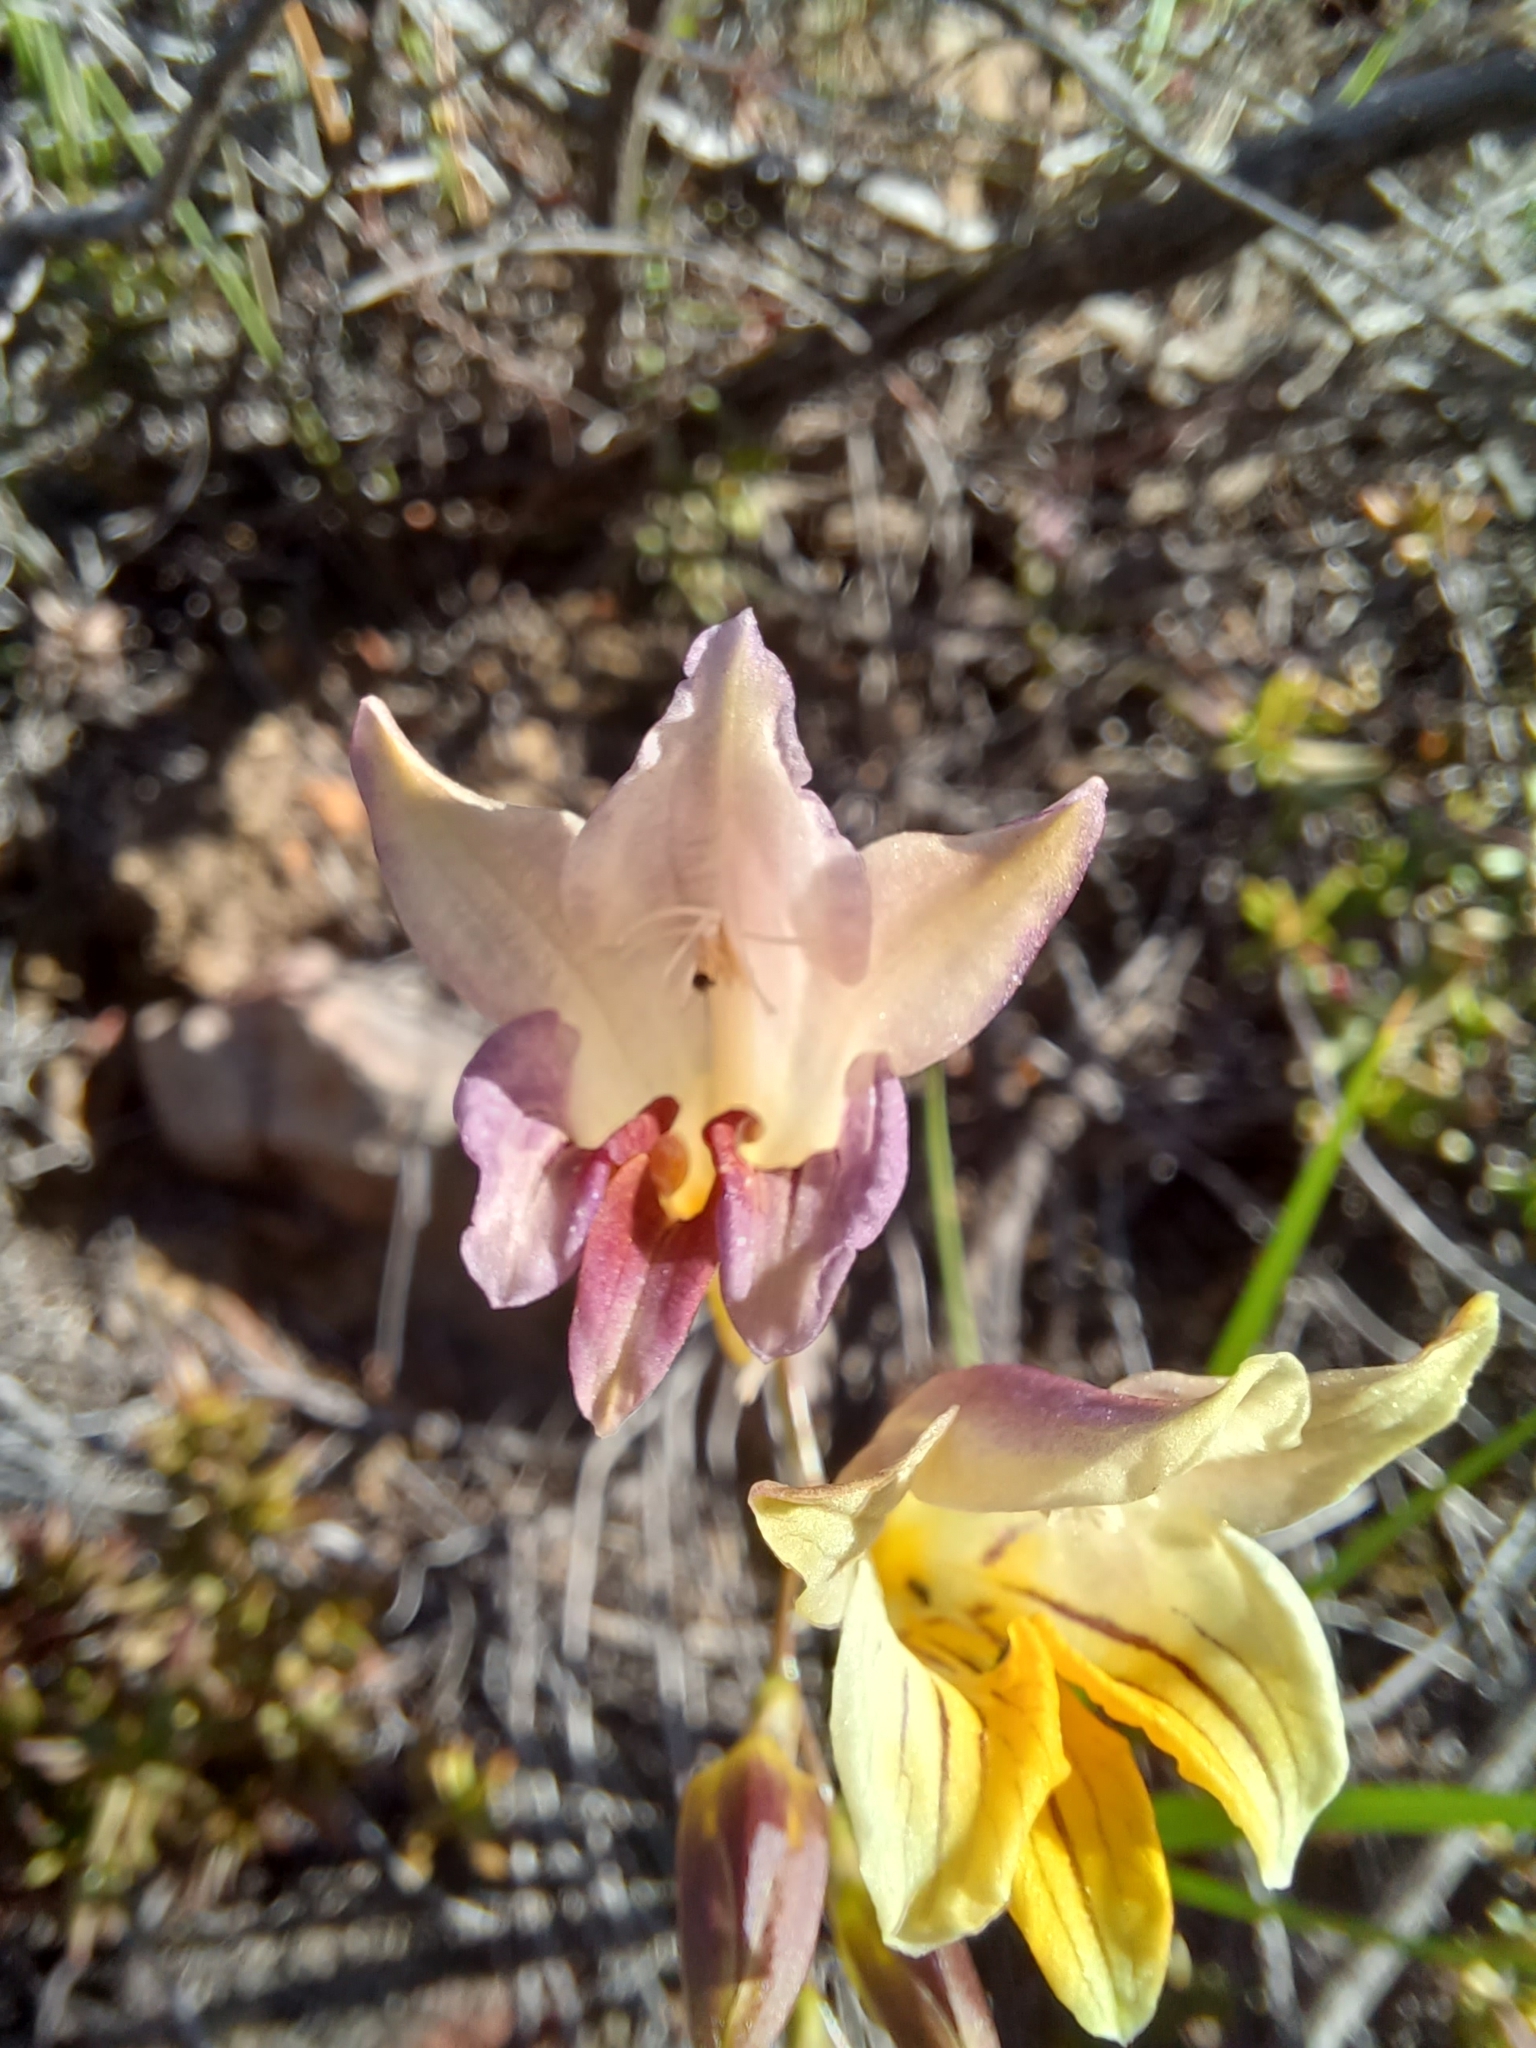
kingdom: Plantae
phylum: Tracheophyta
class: Liliopsida
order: Asparagales
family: Iridaceae
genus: Freesia
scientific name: Freesia refracta
